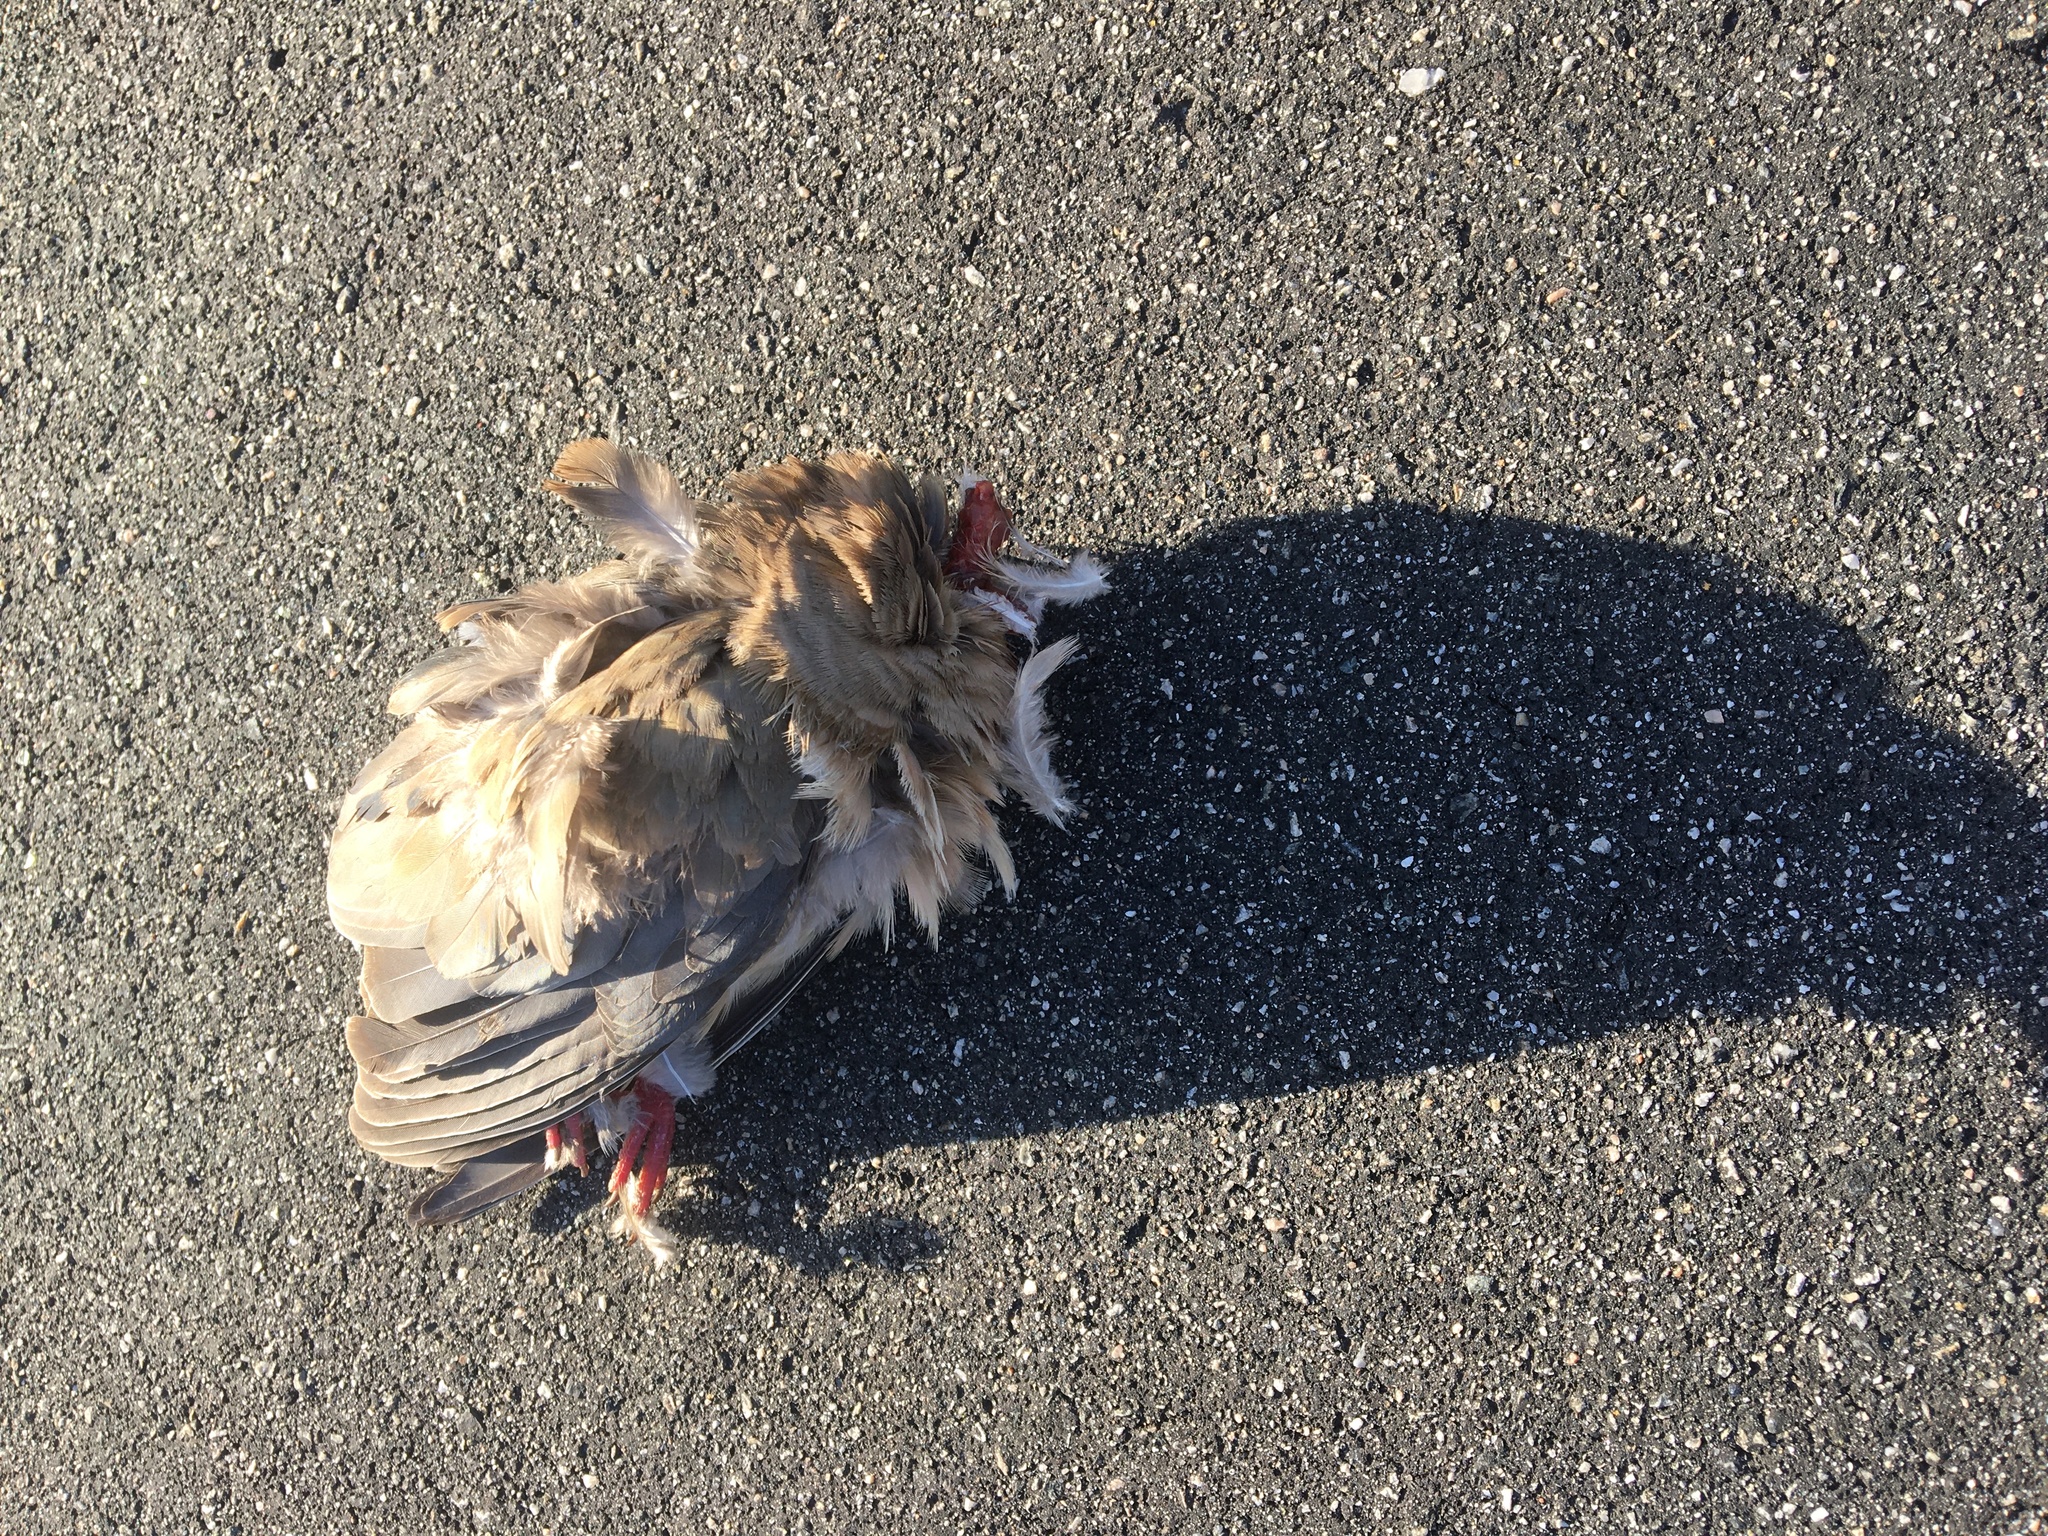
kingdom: Animalia
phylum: Chordata
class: Aves
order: Columbiformes
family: Columbidae
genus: Zenaida
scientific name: Zenaida macroura
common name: Mourning dove
